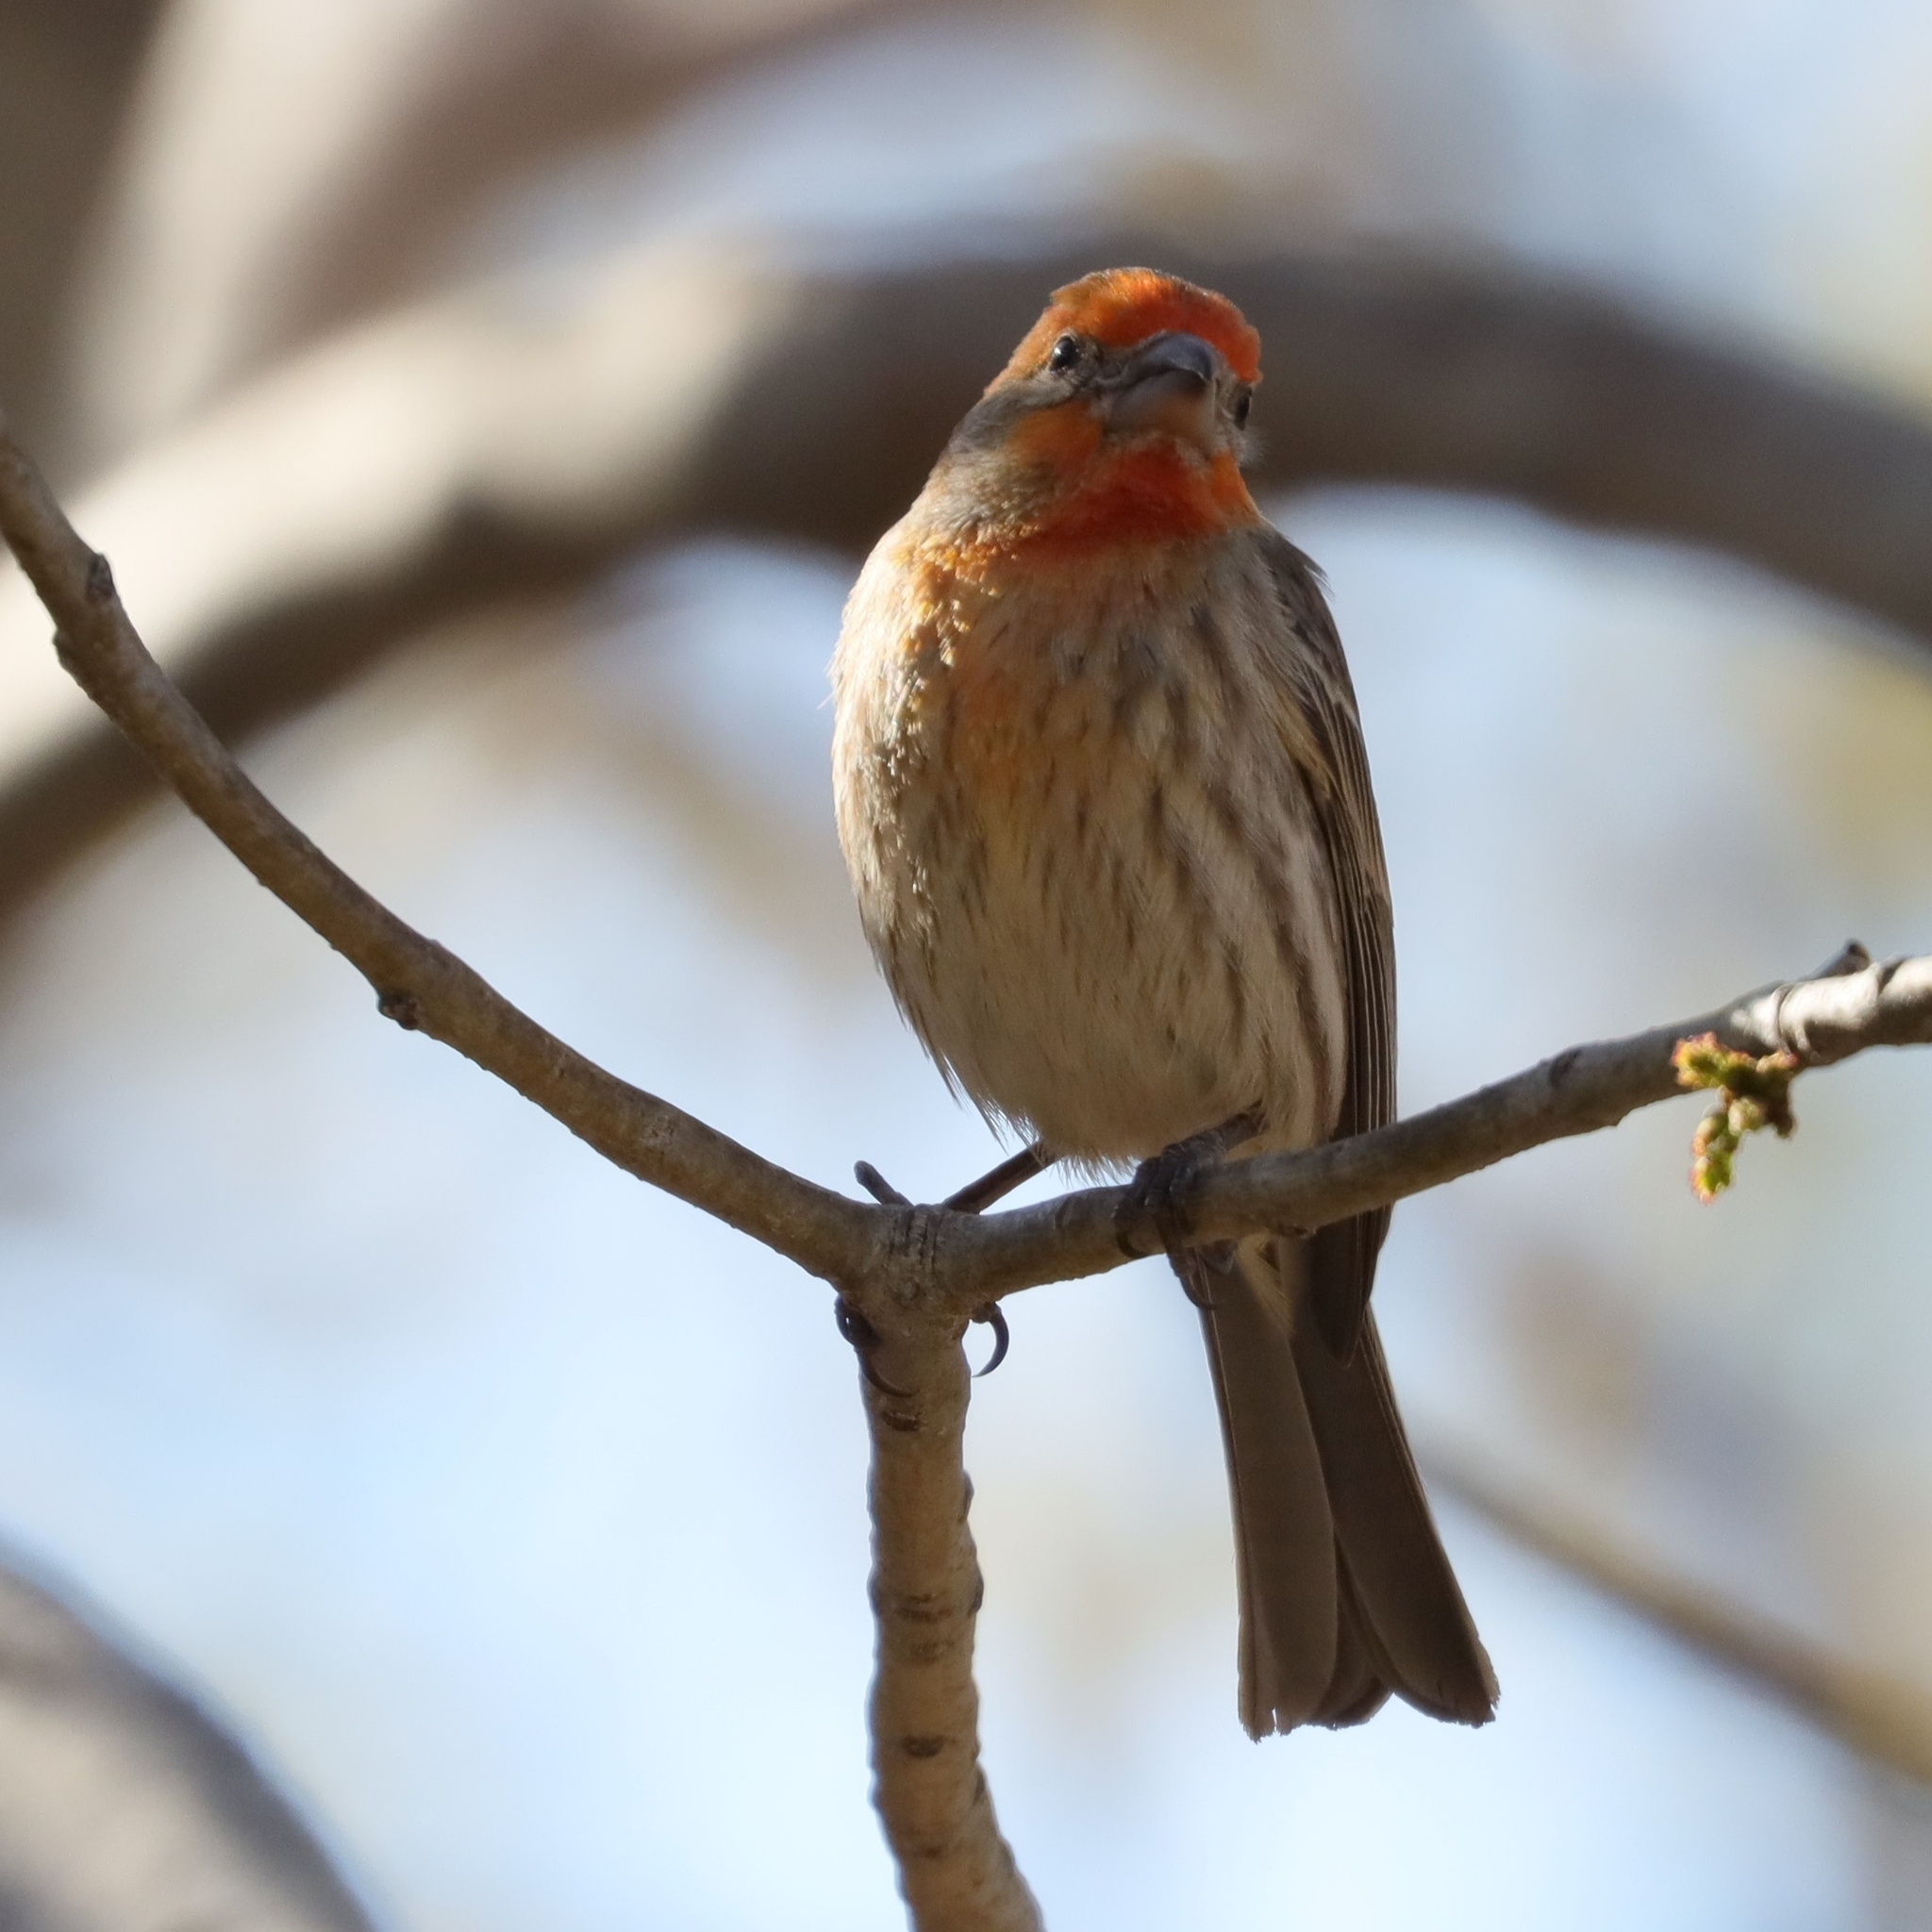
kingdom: Animalia
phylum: Chordata
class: Aves
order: Passeriformes
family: Fringillidae
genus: Haemorhous
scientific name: Haemorhous mexicanus
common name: House finch
